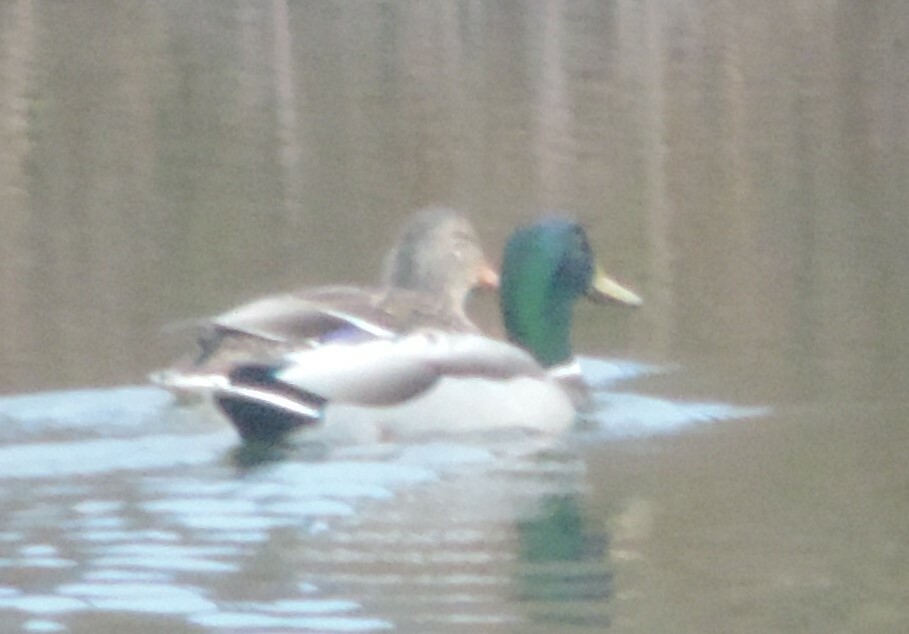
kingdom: Animalia
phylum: Chordata
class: Aves
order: Anseriformes
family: Anatidae
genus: Anas
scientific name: Anas platyrhynchos
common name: Mallard
